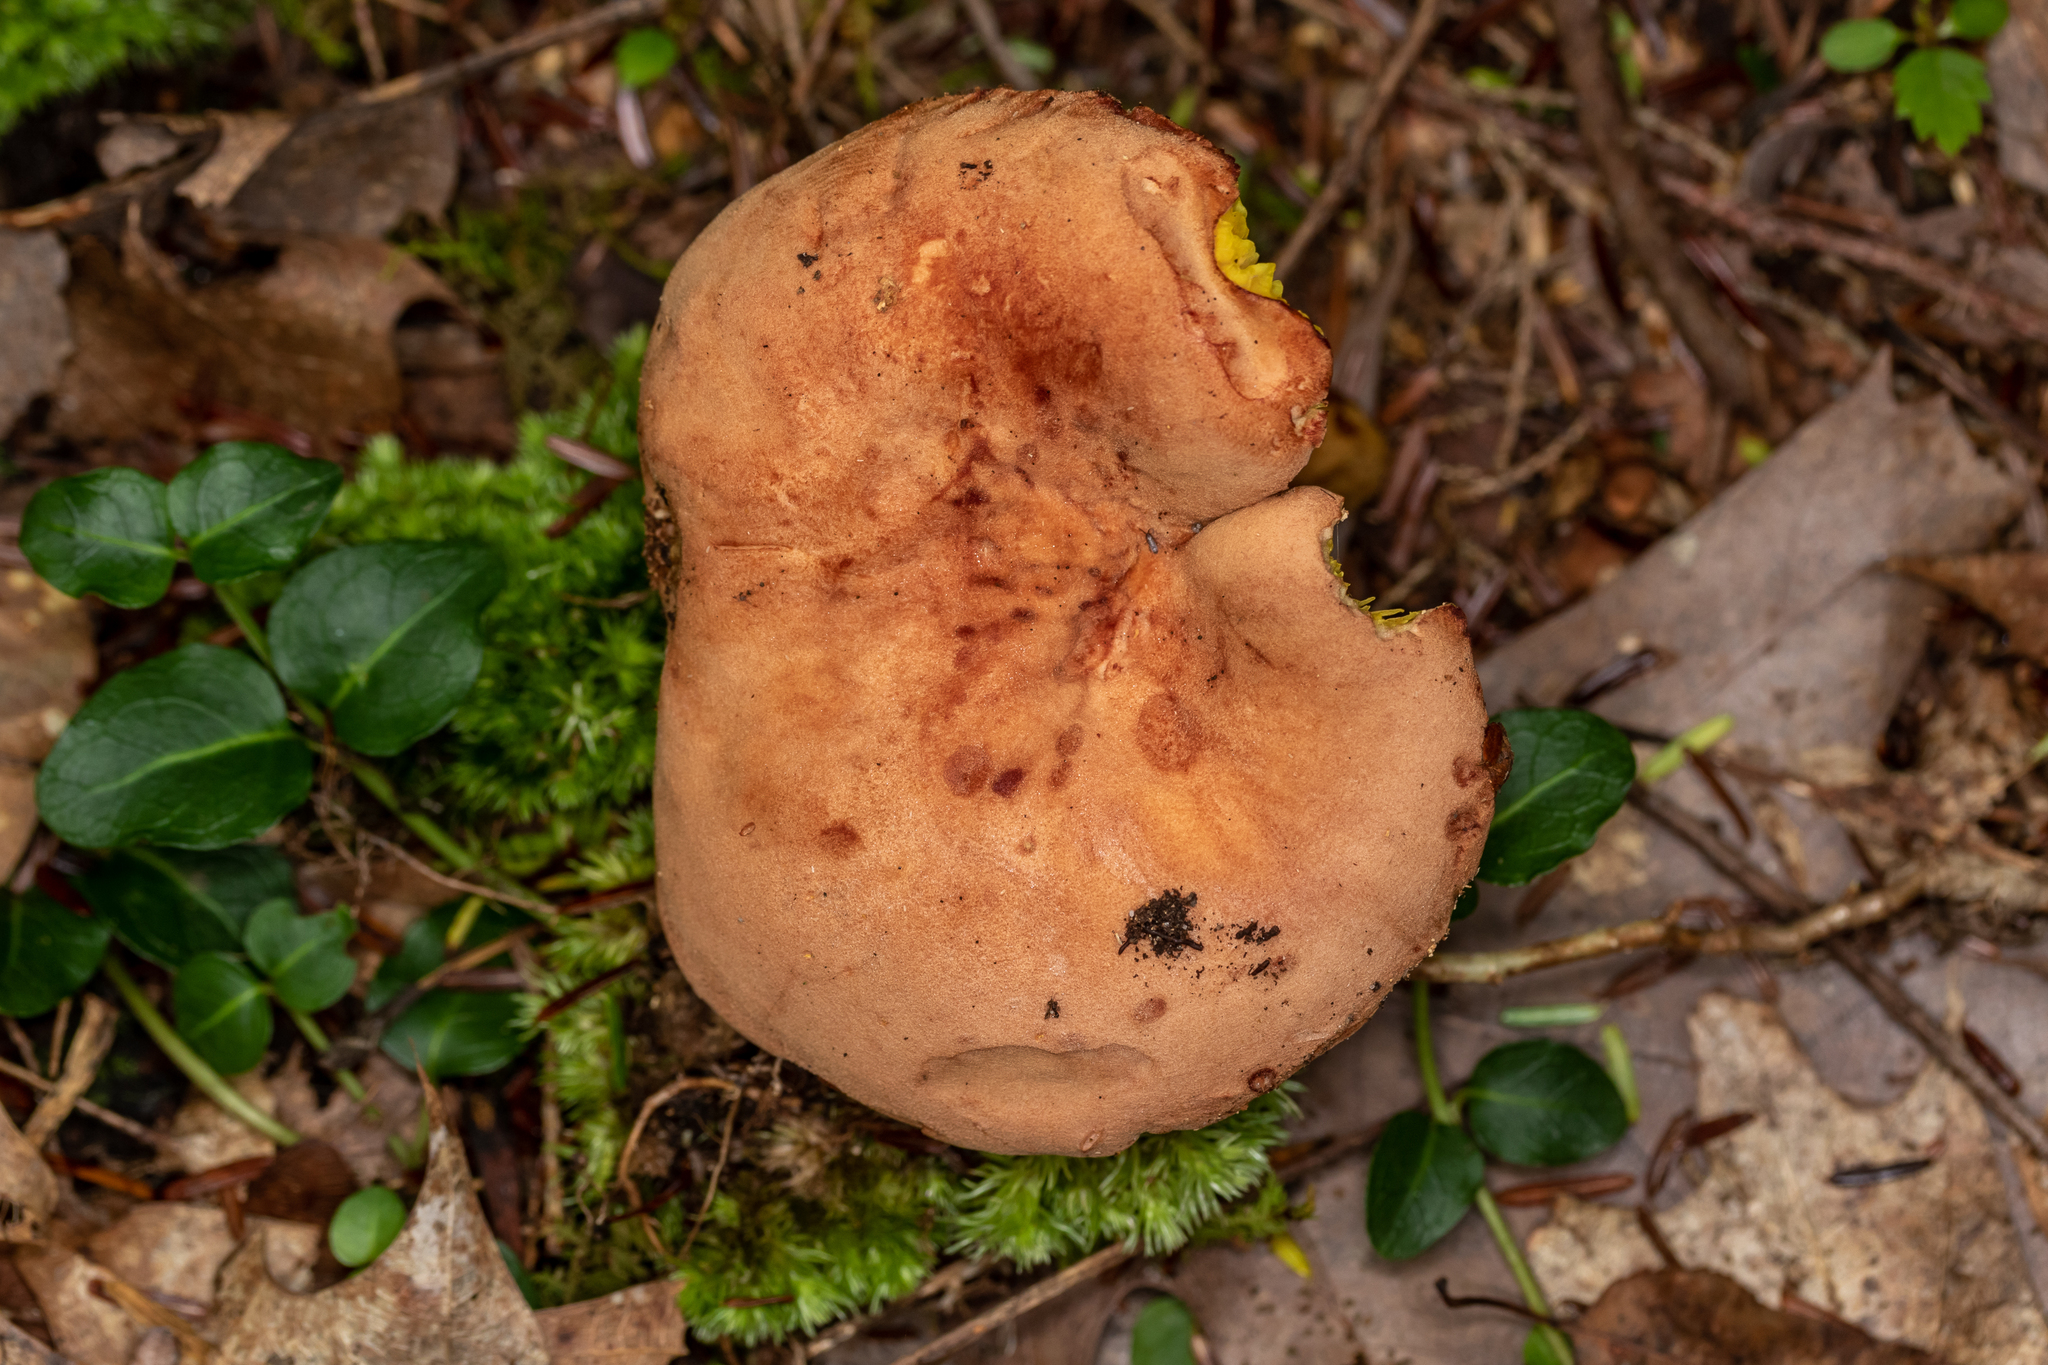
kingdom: Fungi
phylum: Basidiomycota
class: Agaricomycetes
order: Boletales
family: Boletaceae
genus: Phylloporus
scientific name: Phylloporus rhodoxanthus
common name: Golden gilled bolete
